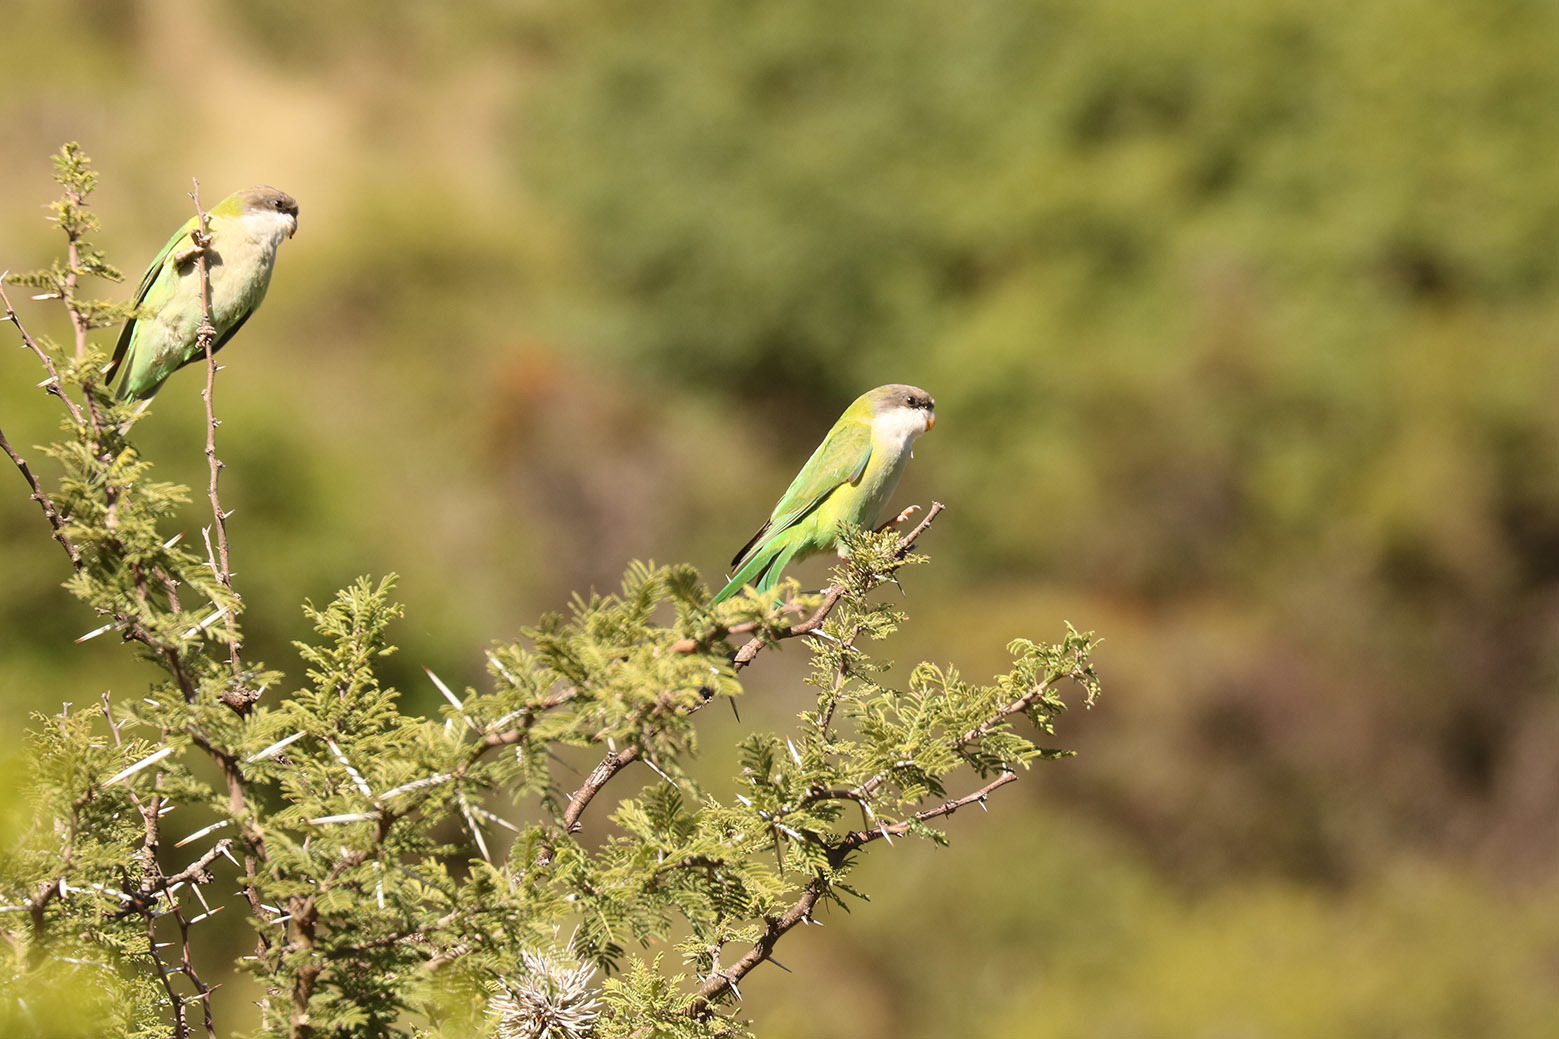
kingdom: Animalia
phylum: Chordata
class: Aves
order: Psittaciformes
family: Psittacidae
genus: Psilopsiagon
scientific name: Psilopsiagon aymara
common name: Grey-hooded parakeet
